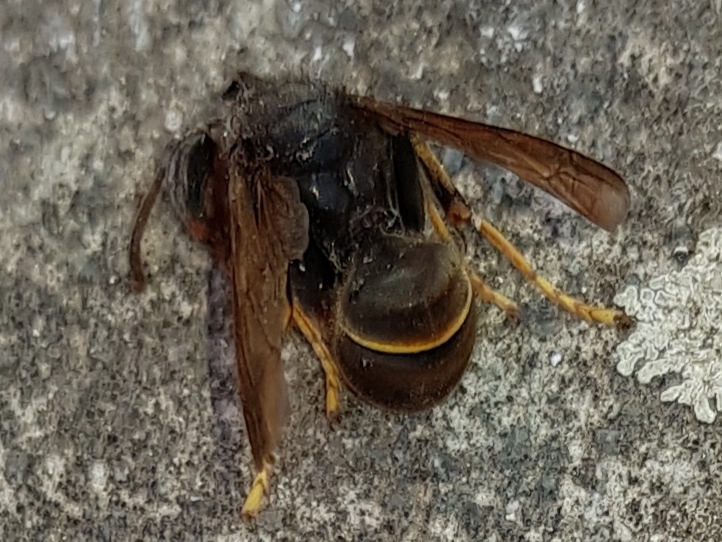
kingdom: Animalia
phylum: Arthropoda
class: Insecta
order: Hymenoptera
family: Vespidae
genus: Vespa
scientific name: Vespa velutina
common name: Asian hornet
